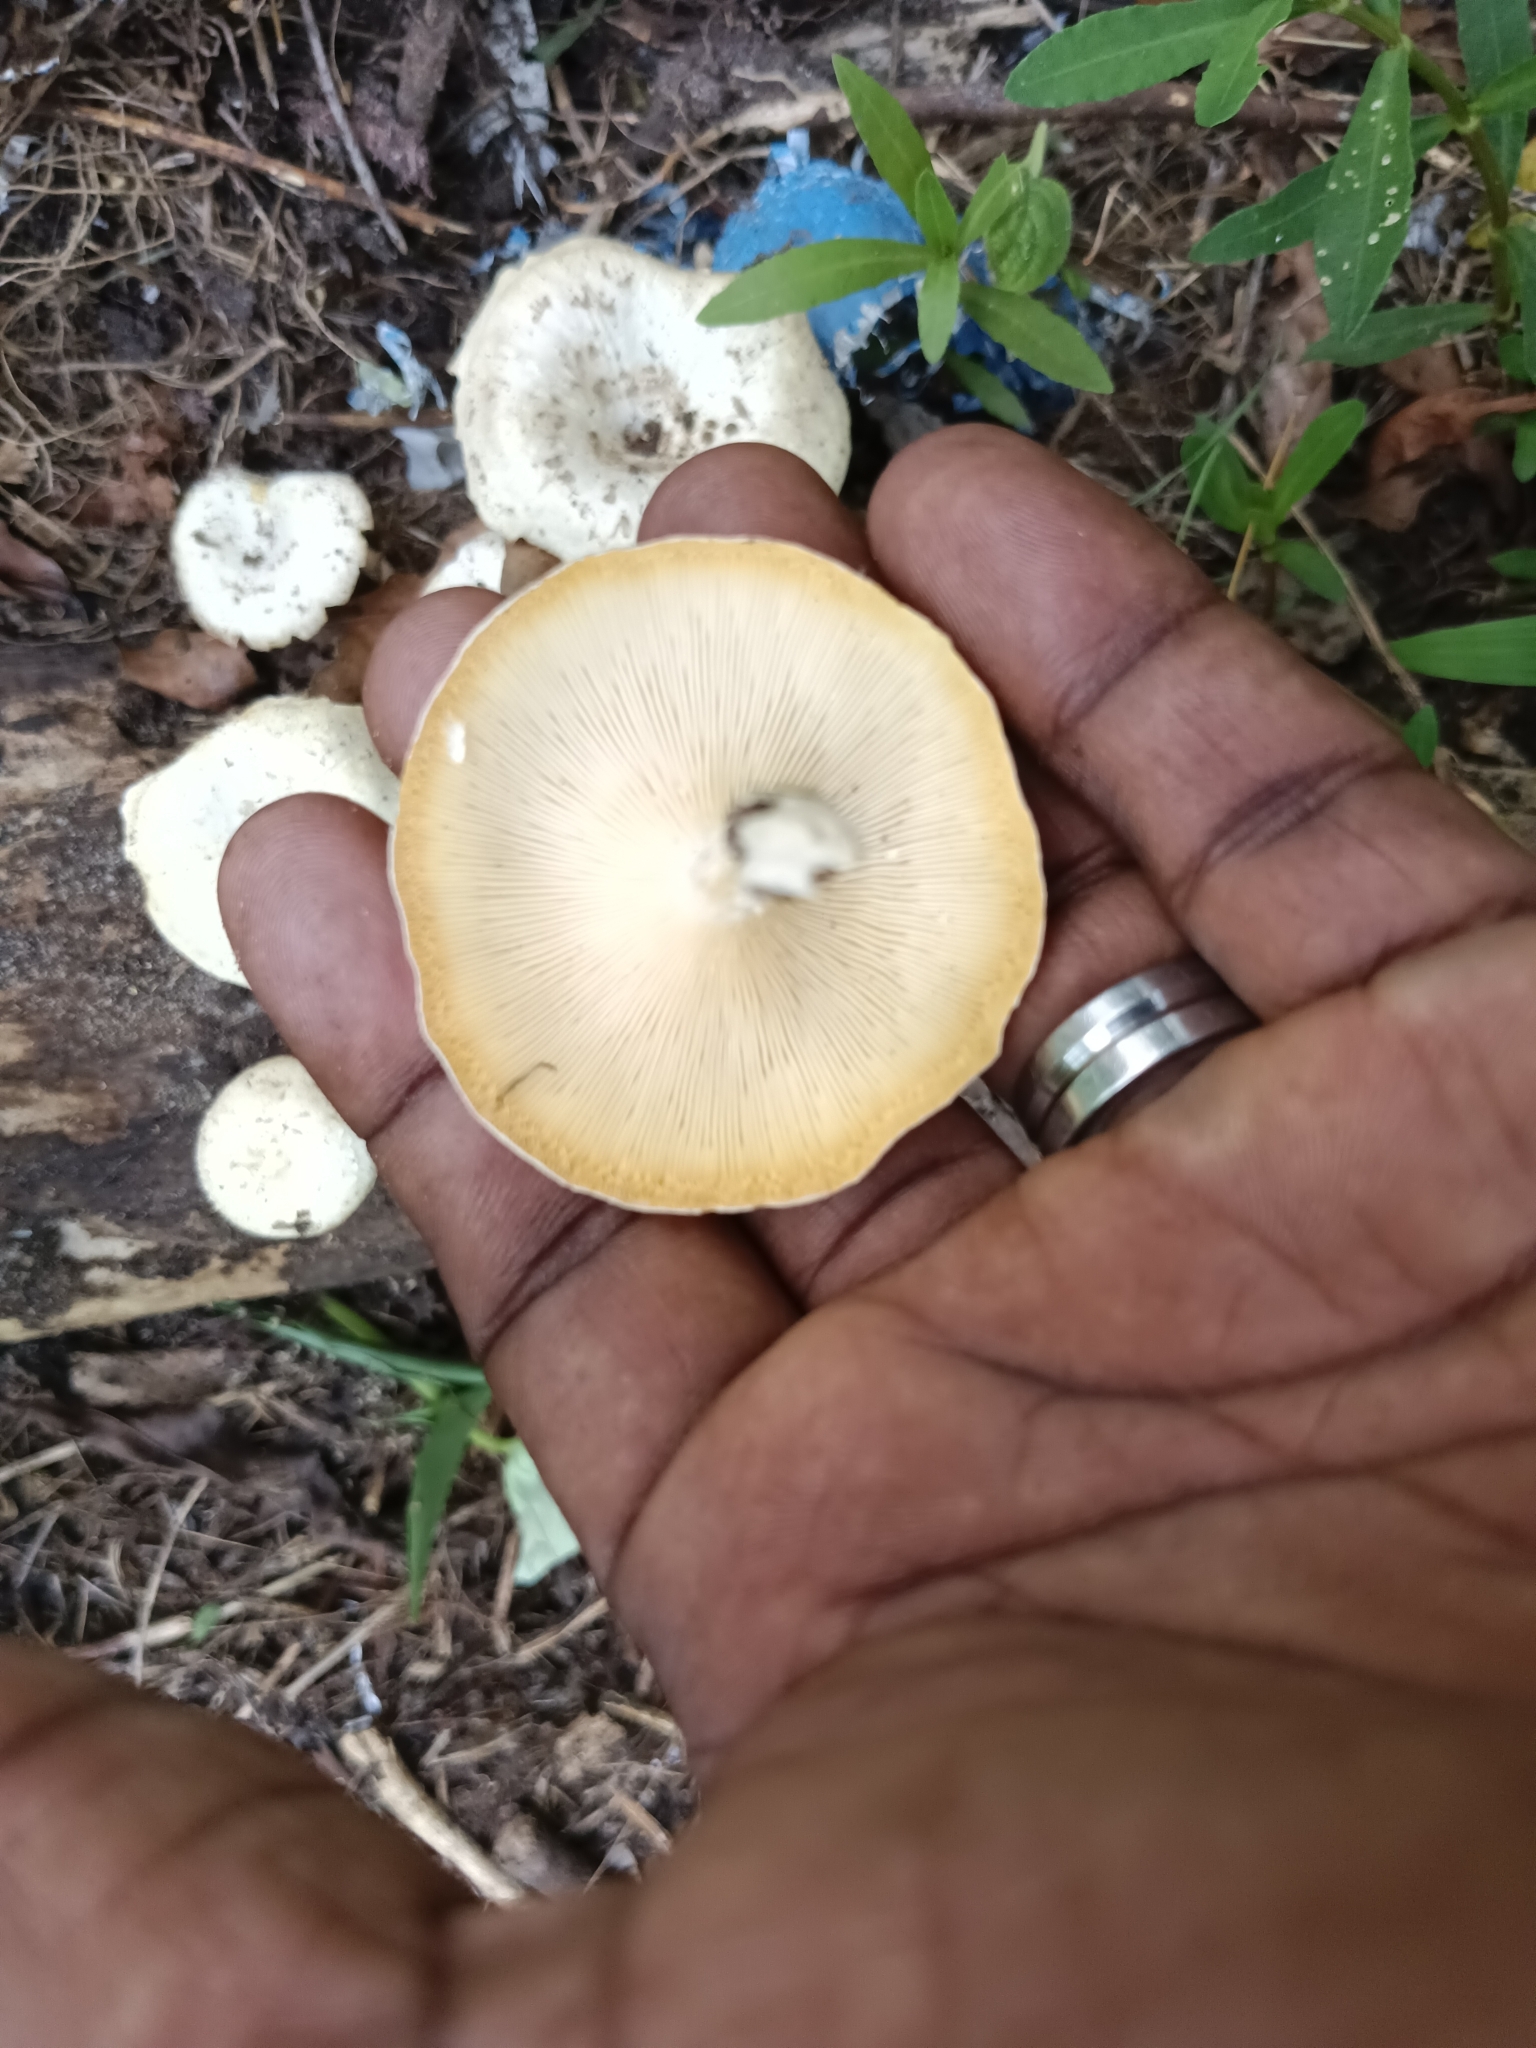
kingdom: Fungi
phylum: Basidiomycota
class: Agaricomycetes
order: Polyporales
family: Polyporaceae
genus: Lentinus
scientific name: Lentinus tigrinus
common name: Tiger sawgill
